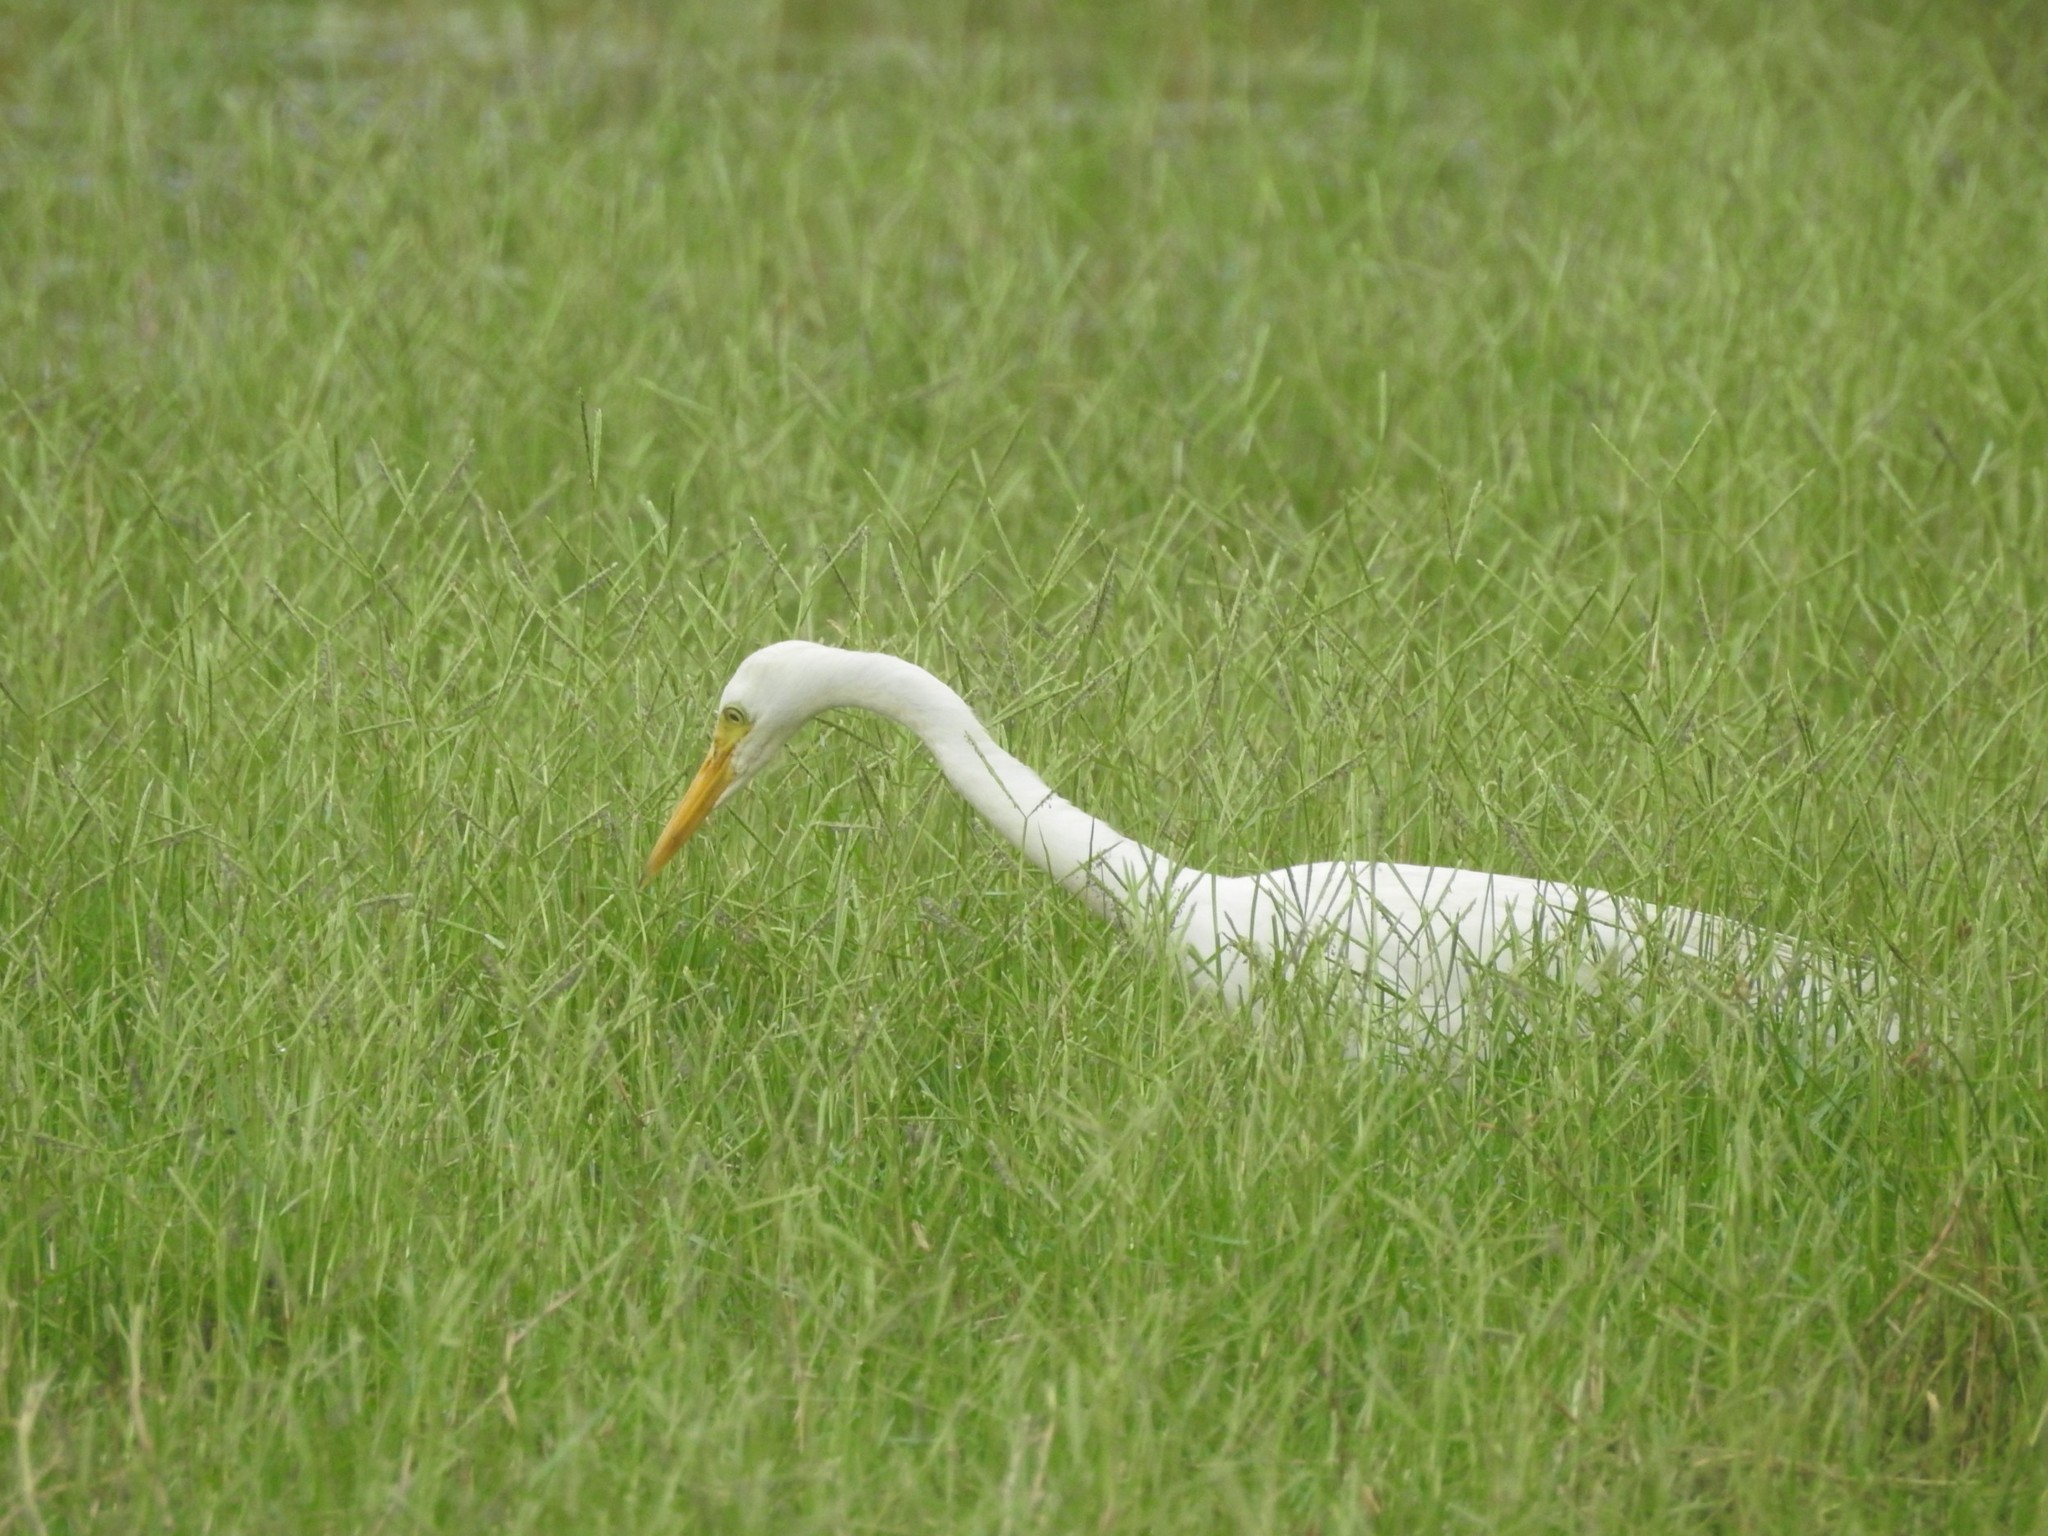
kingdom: Animalia
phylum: Chordata
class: Aves
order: Pelecaniformes
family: Ardeidae
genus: Egretta
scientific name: Egretta intermedia
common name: Intermediate egret
